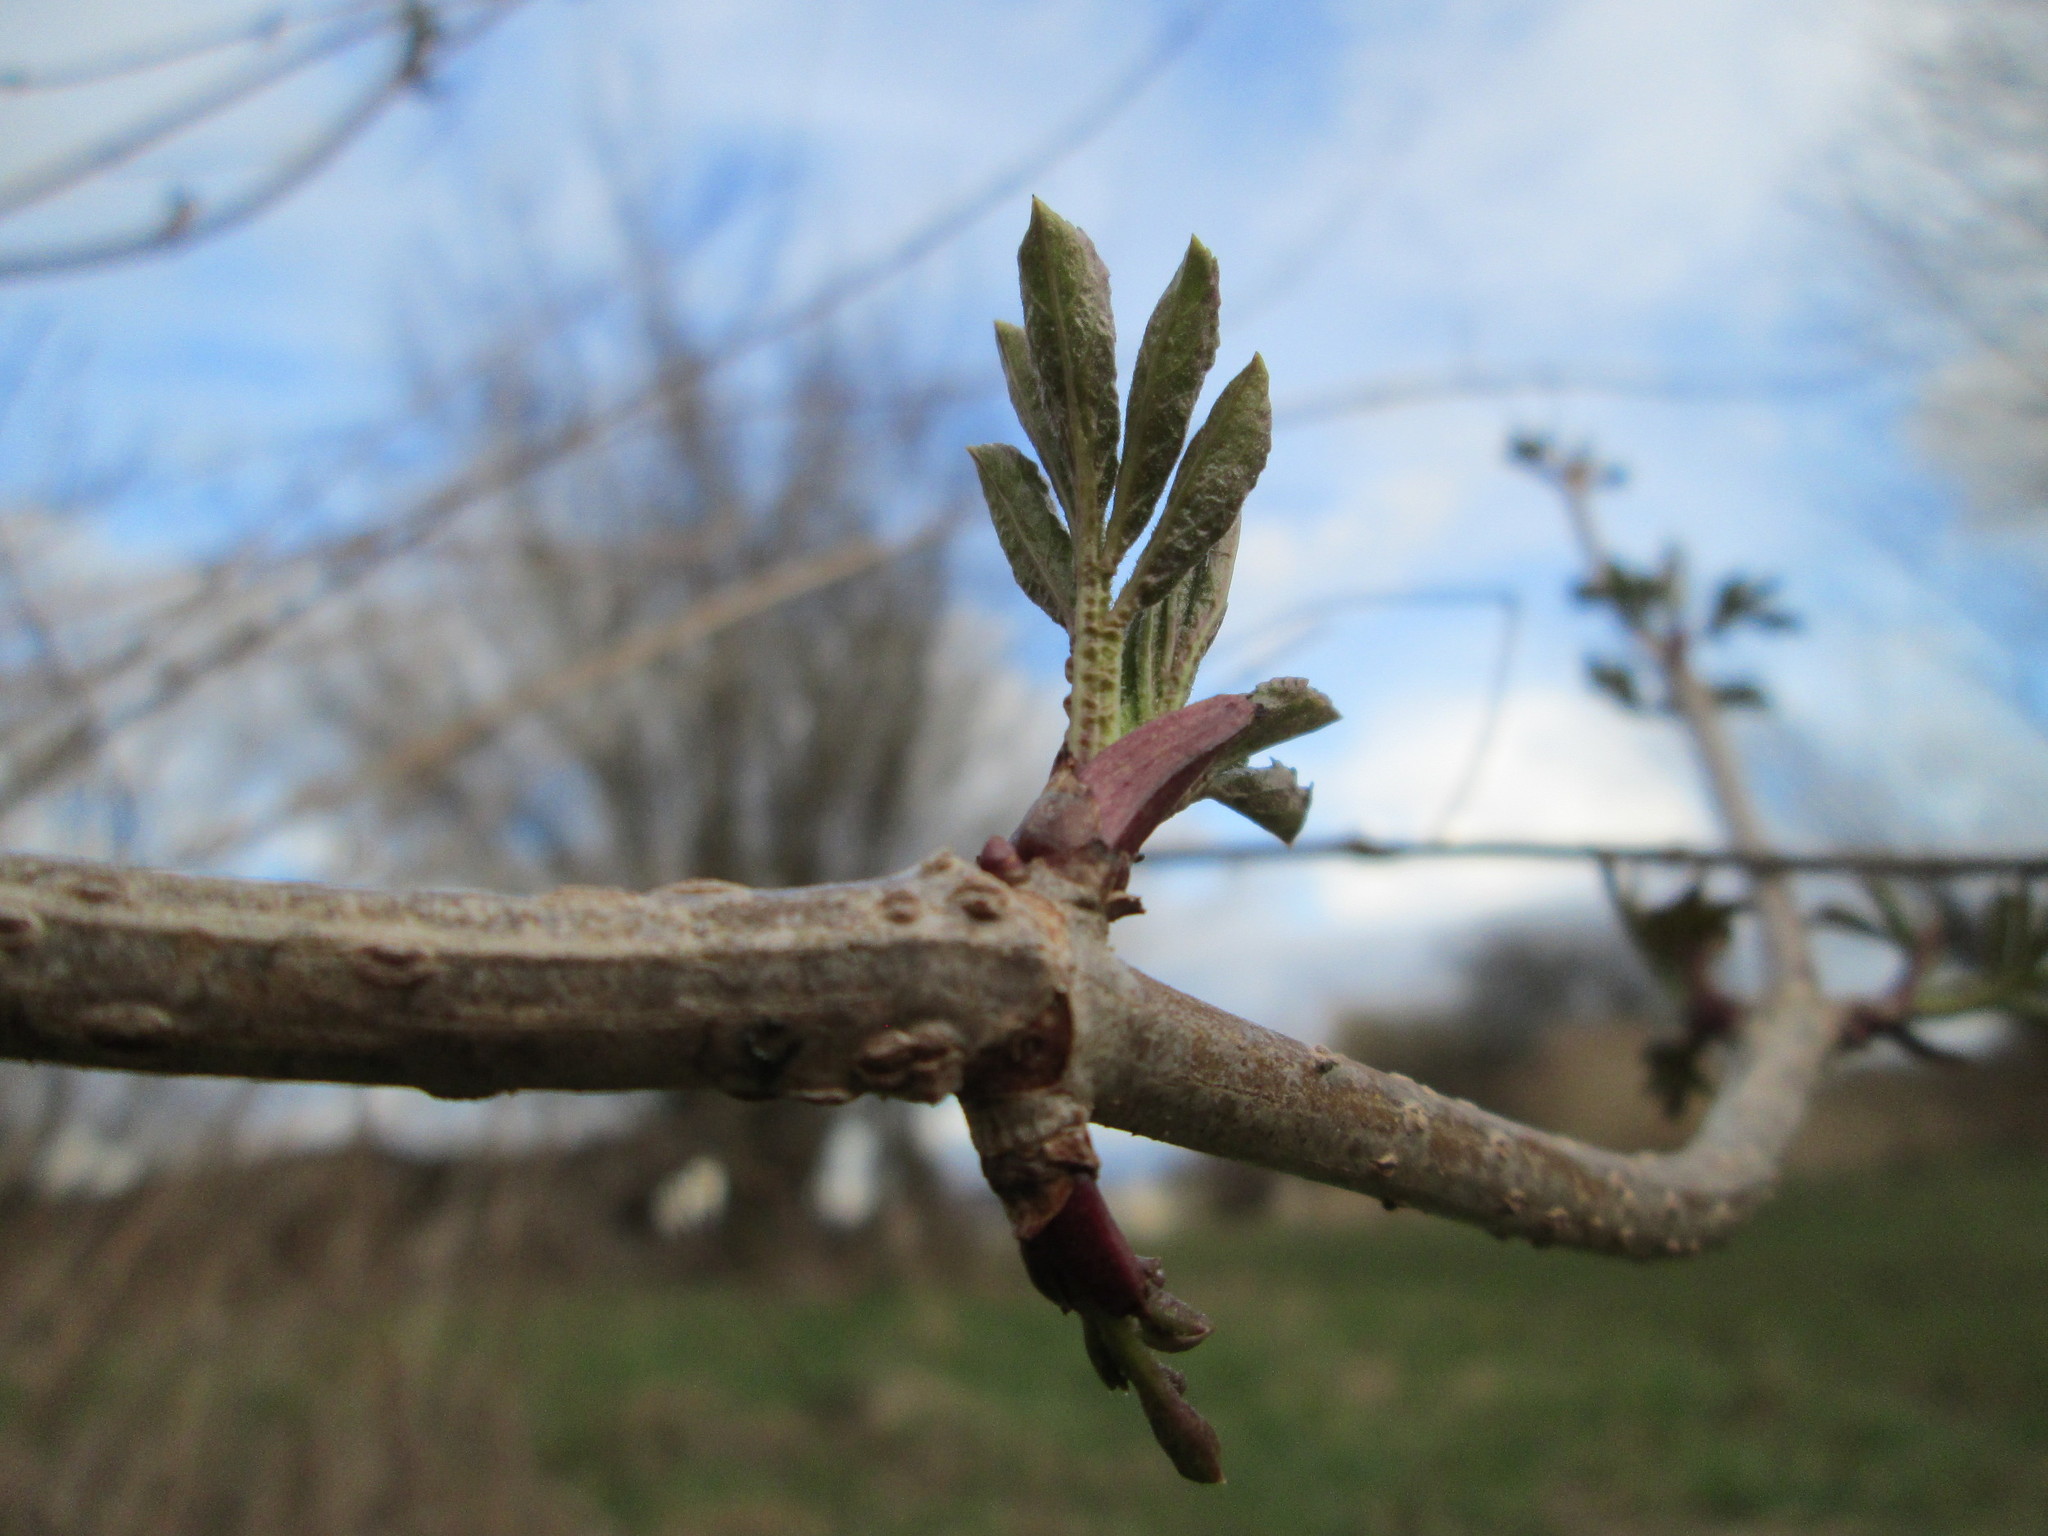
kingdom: Plantae
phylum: Tracheophyta
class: Magnoliopsida
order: Dipsacales
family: Viburnaceae
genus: Sambucus
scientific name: Sambucus nigra
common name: Elder
